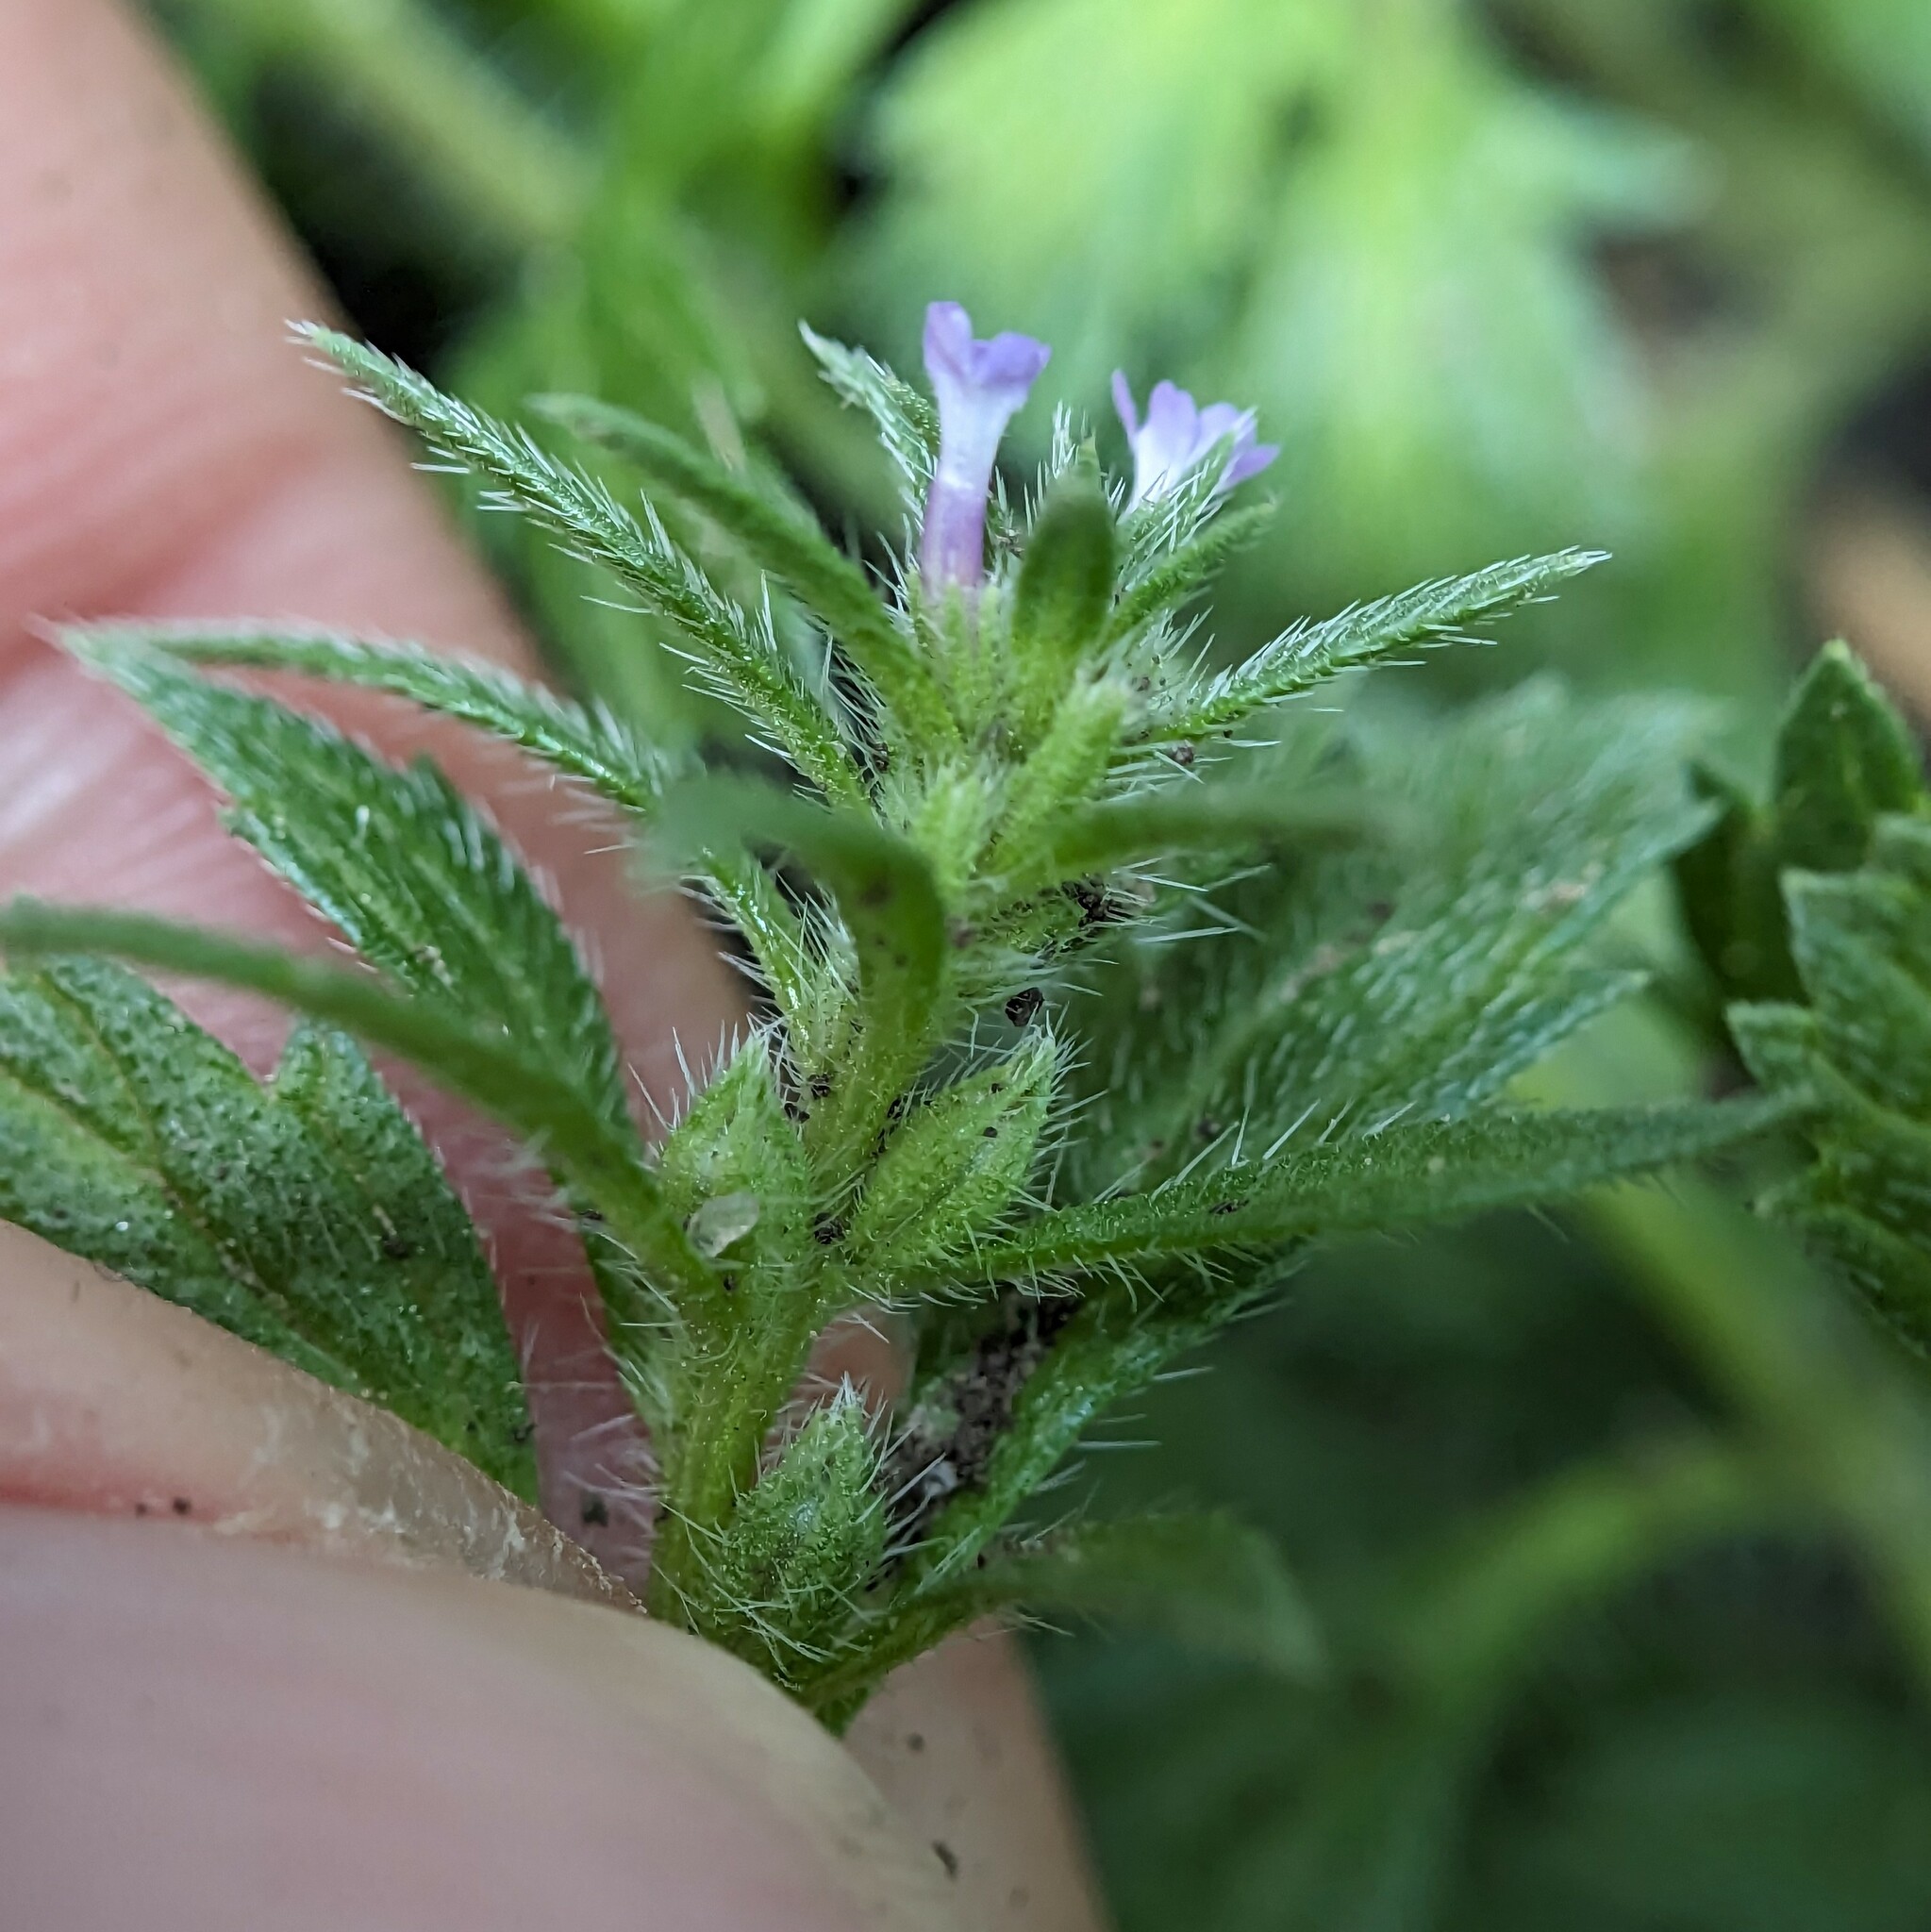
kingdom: Plantae
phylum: Tracheophyta
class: Magnoliopsida
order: Lamiales
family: Verbenaceae
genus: Verbena
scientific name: Verbena bracteata
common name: Bracted vervain
